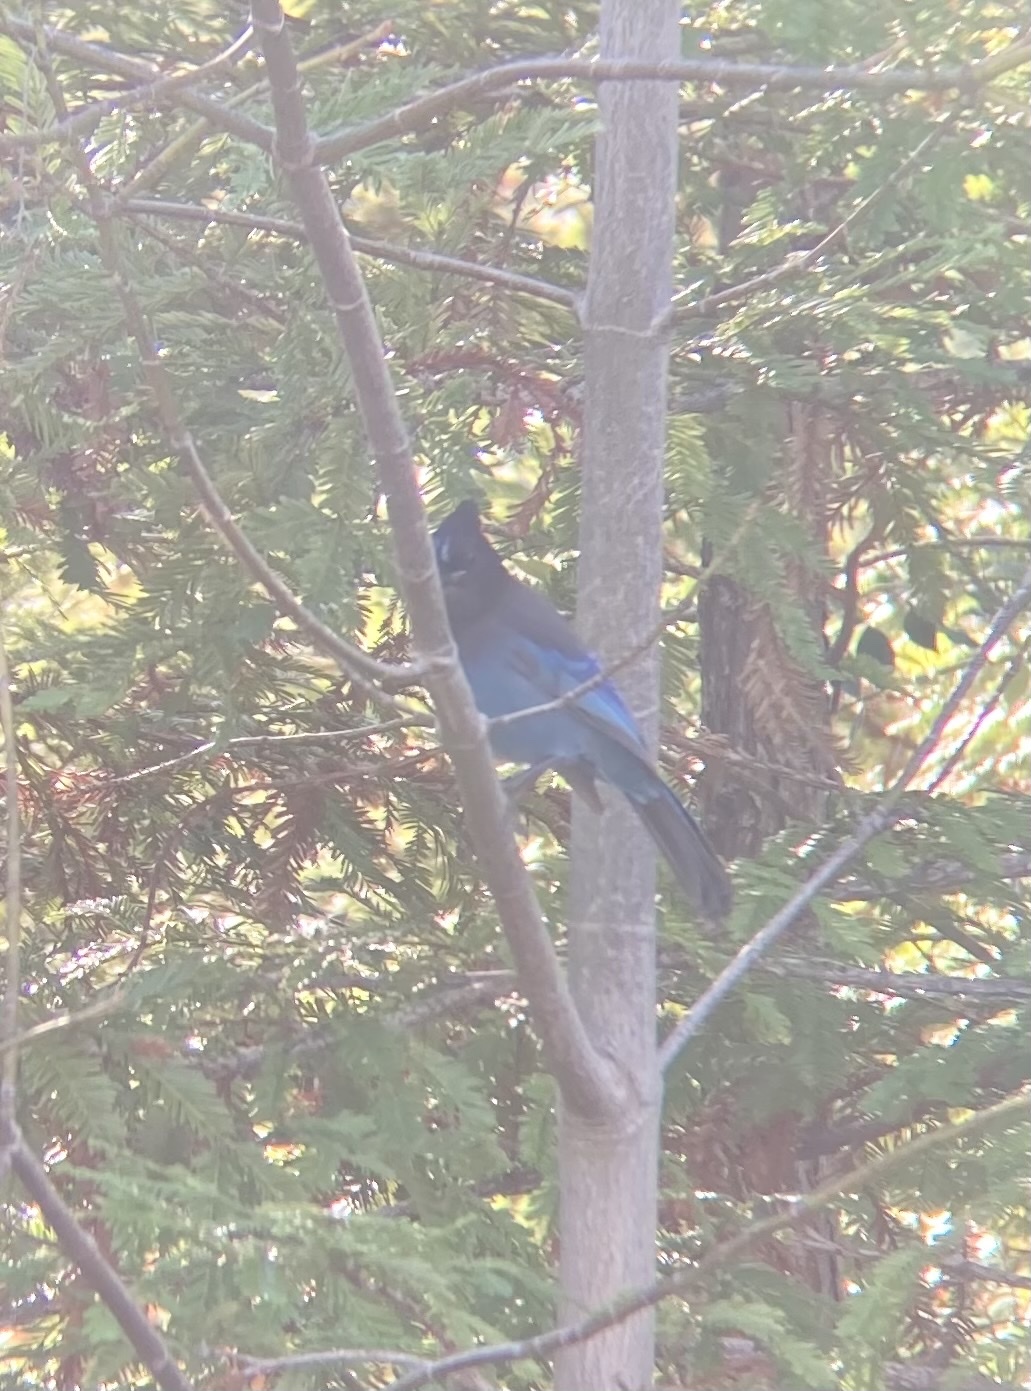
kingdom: Animalia
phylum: Chordata
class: Aves
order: Passeriformes
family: Corvidae
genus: Cyanocitta
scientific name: Cyanocitta stelleri
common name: Steller's jay
